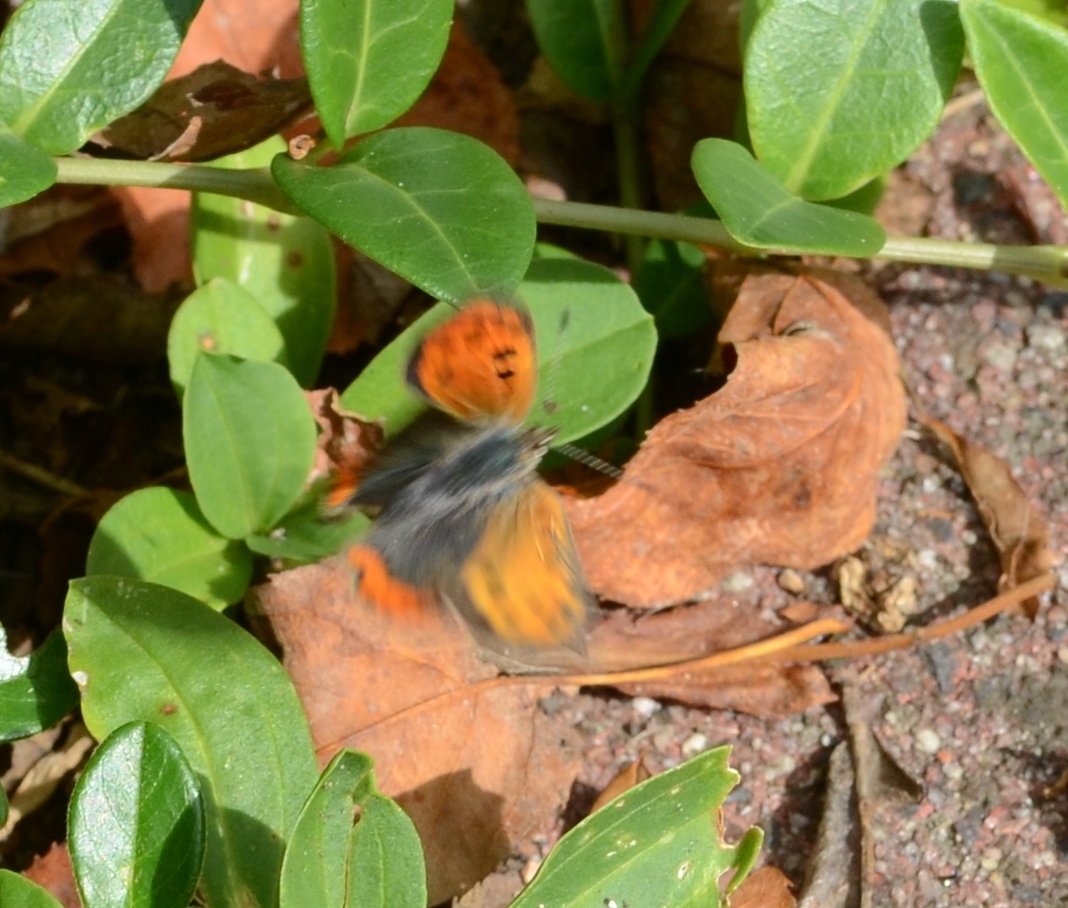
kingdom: Animalia
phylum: Arthropoda
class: Insecta
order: Lepidoptera
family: Lycaenidae
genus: Lycaena
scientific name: Lycaena phlaeas
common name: Small copper
